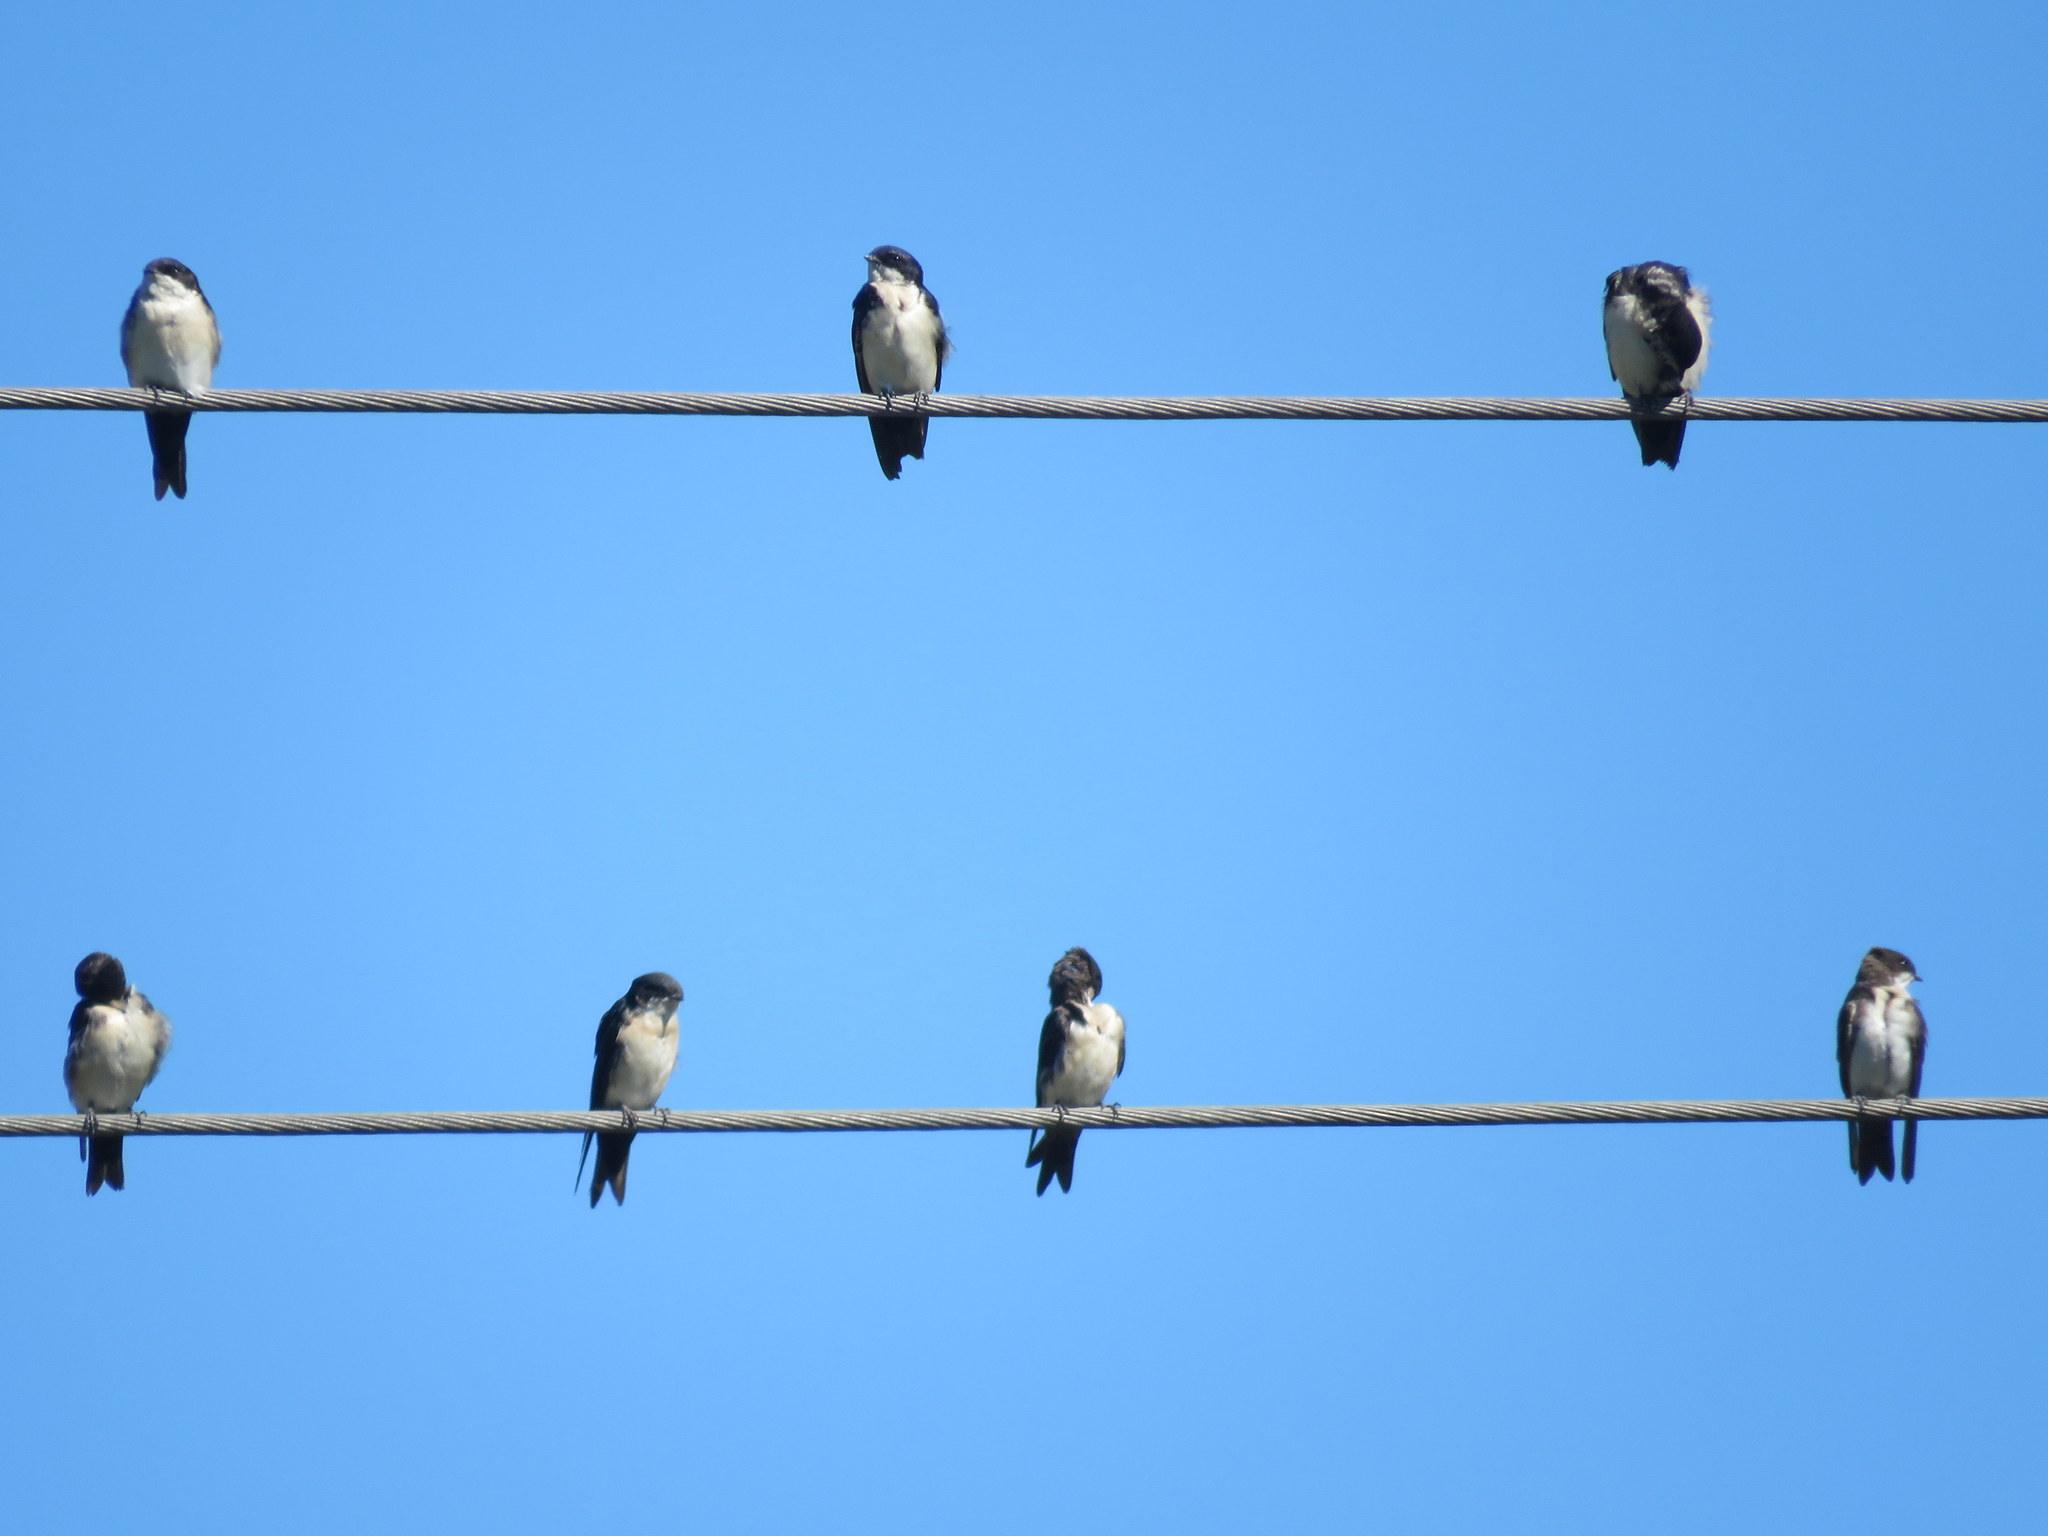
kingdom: Animalia
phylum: Chordata
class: Aves
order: Passeriformes
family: Hirundinidae
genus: Notiochelidon
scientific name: Notiochelidon cyanoleuca
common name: Blue-and-white swallow
